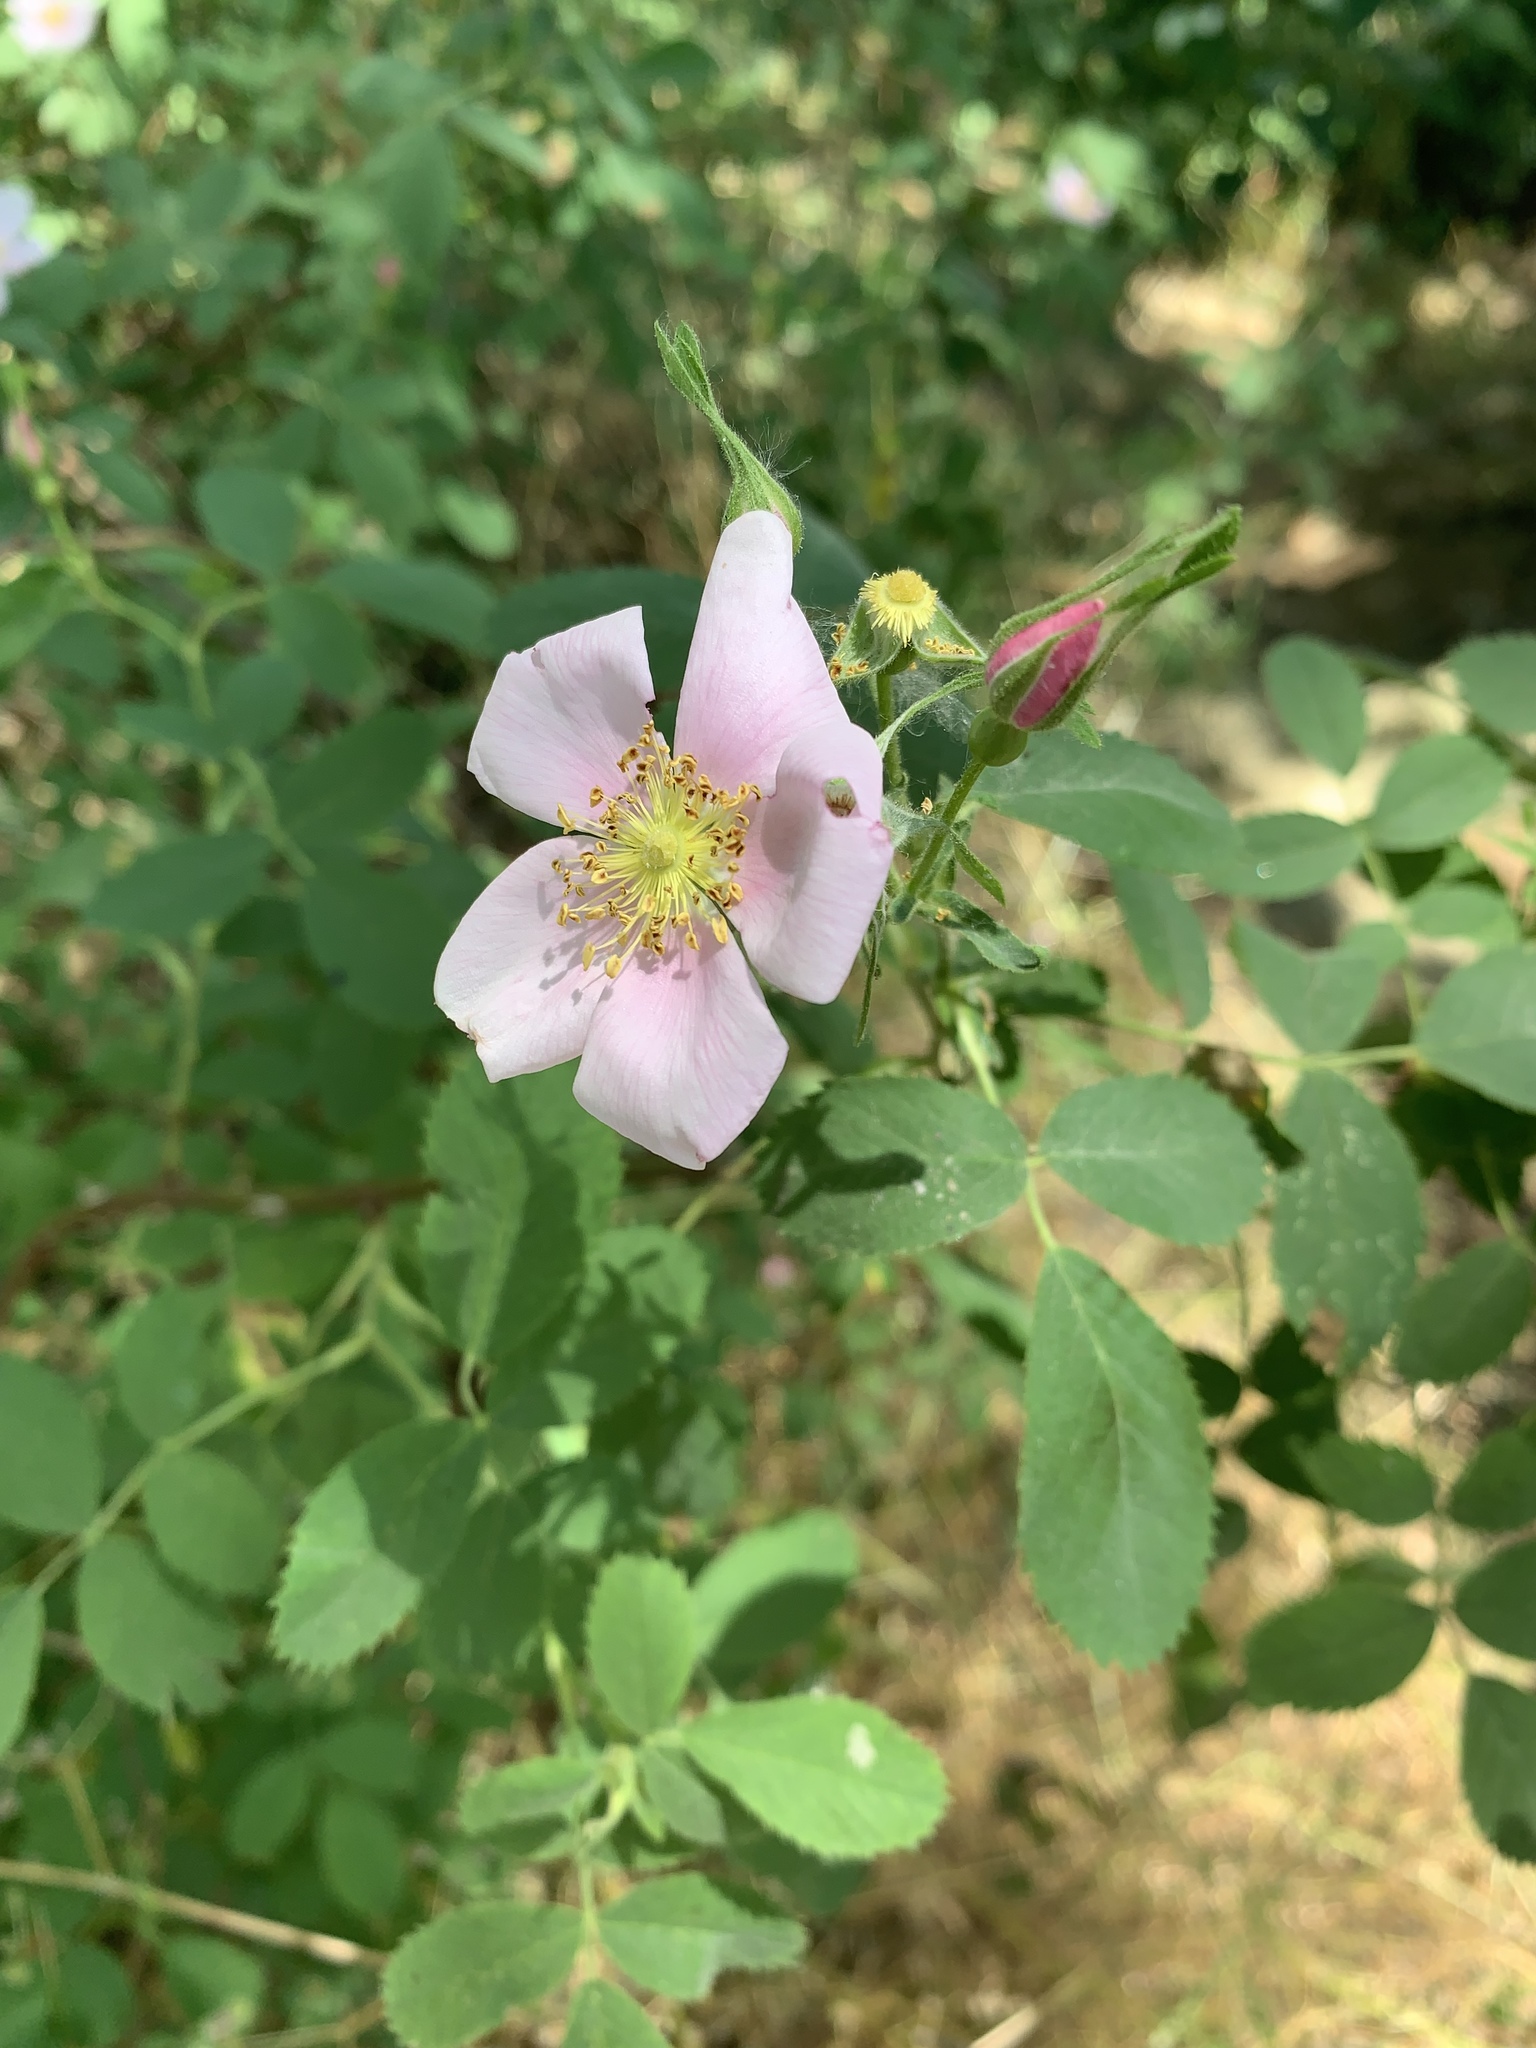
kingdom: Plantae
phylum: Tracheophyta
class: Magnoliopsida
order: Rosales
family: Rosaceae
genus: Rosa
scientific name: Rosa californica
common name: California rose
